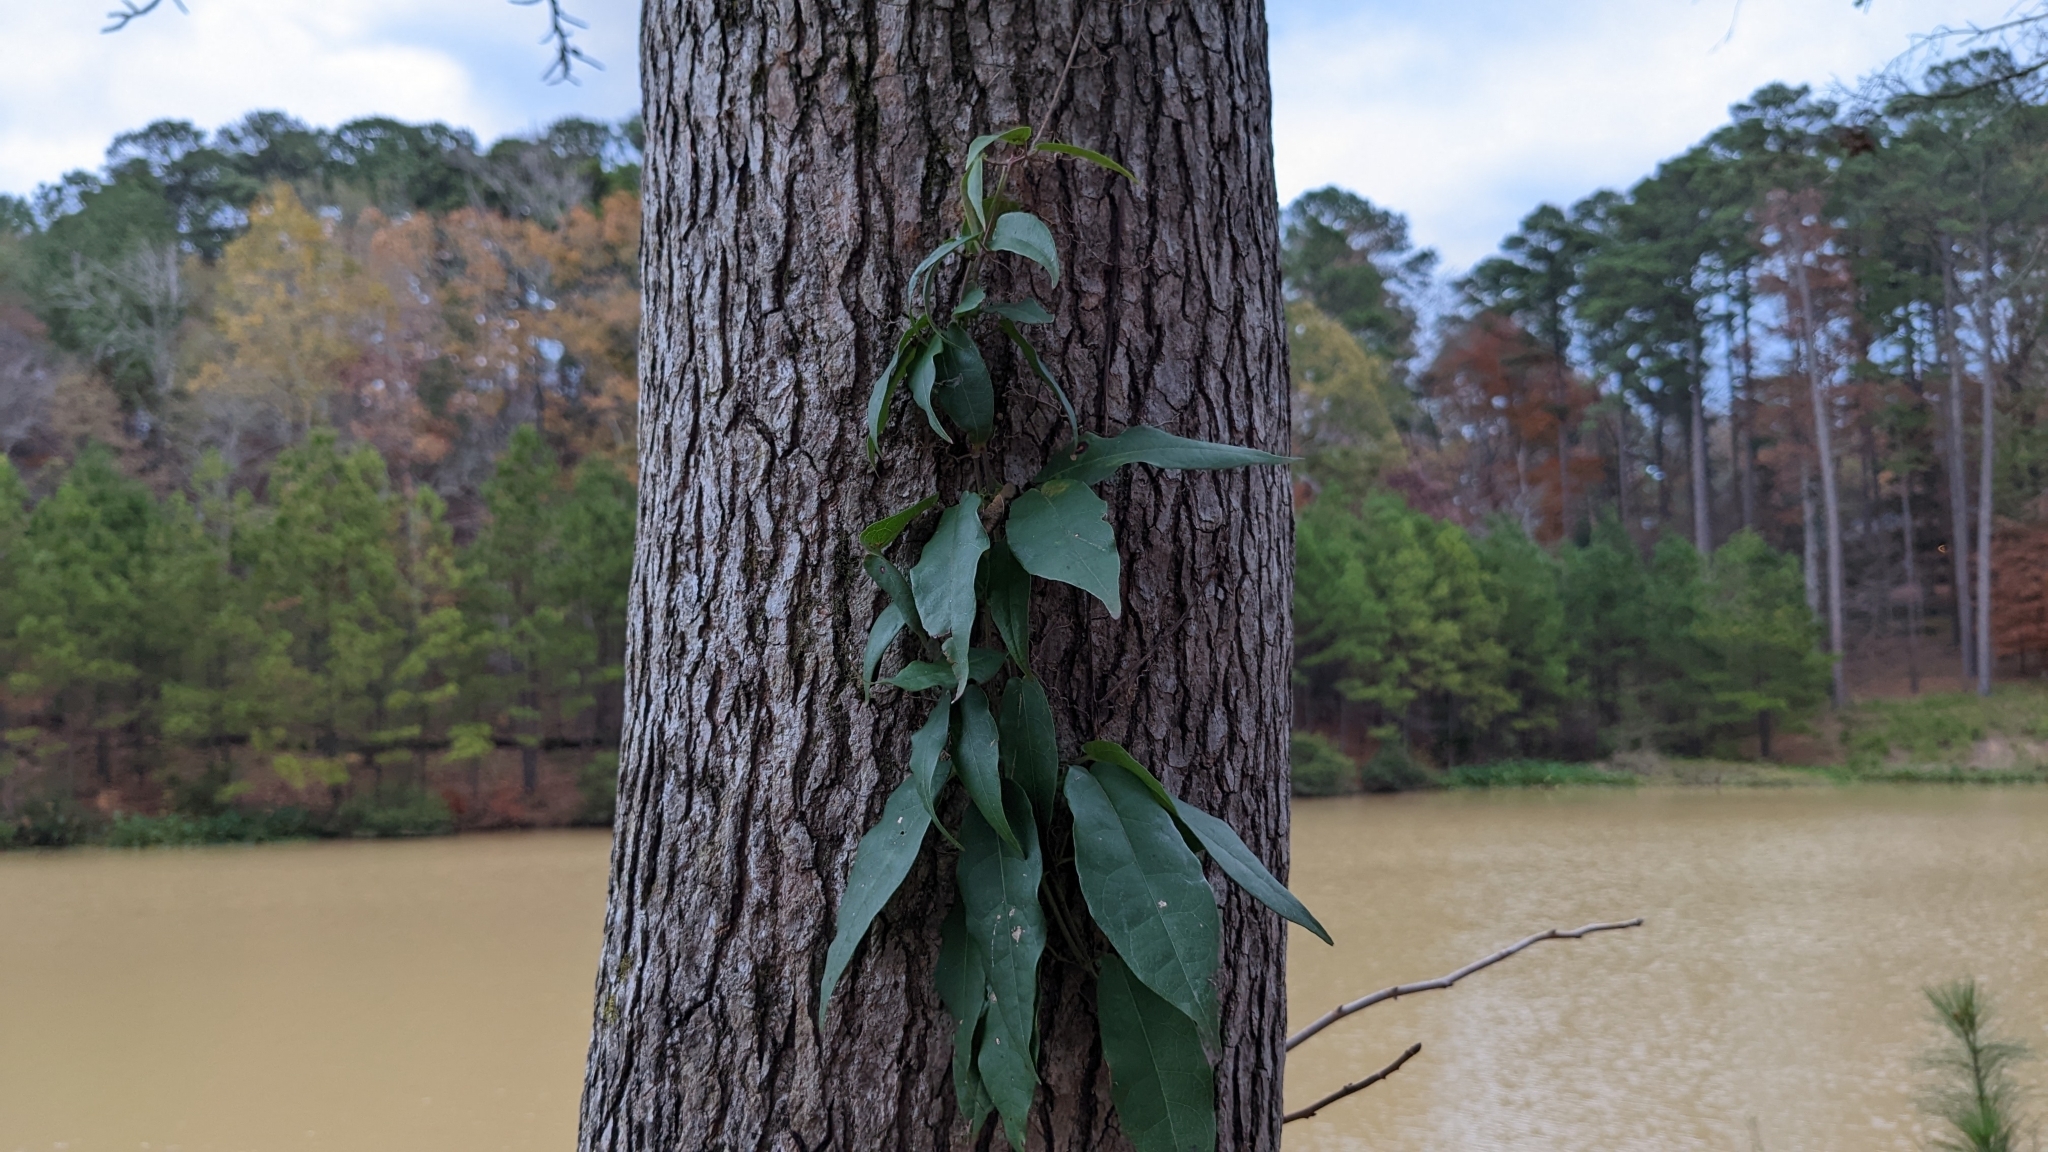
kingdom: Plantae
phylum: Tracheophyta
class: Magnoliopsida
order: Lamiales
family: Bignoniaceae
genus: Bignonia
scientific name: Bignonia capreolata
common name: Crossvine
